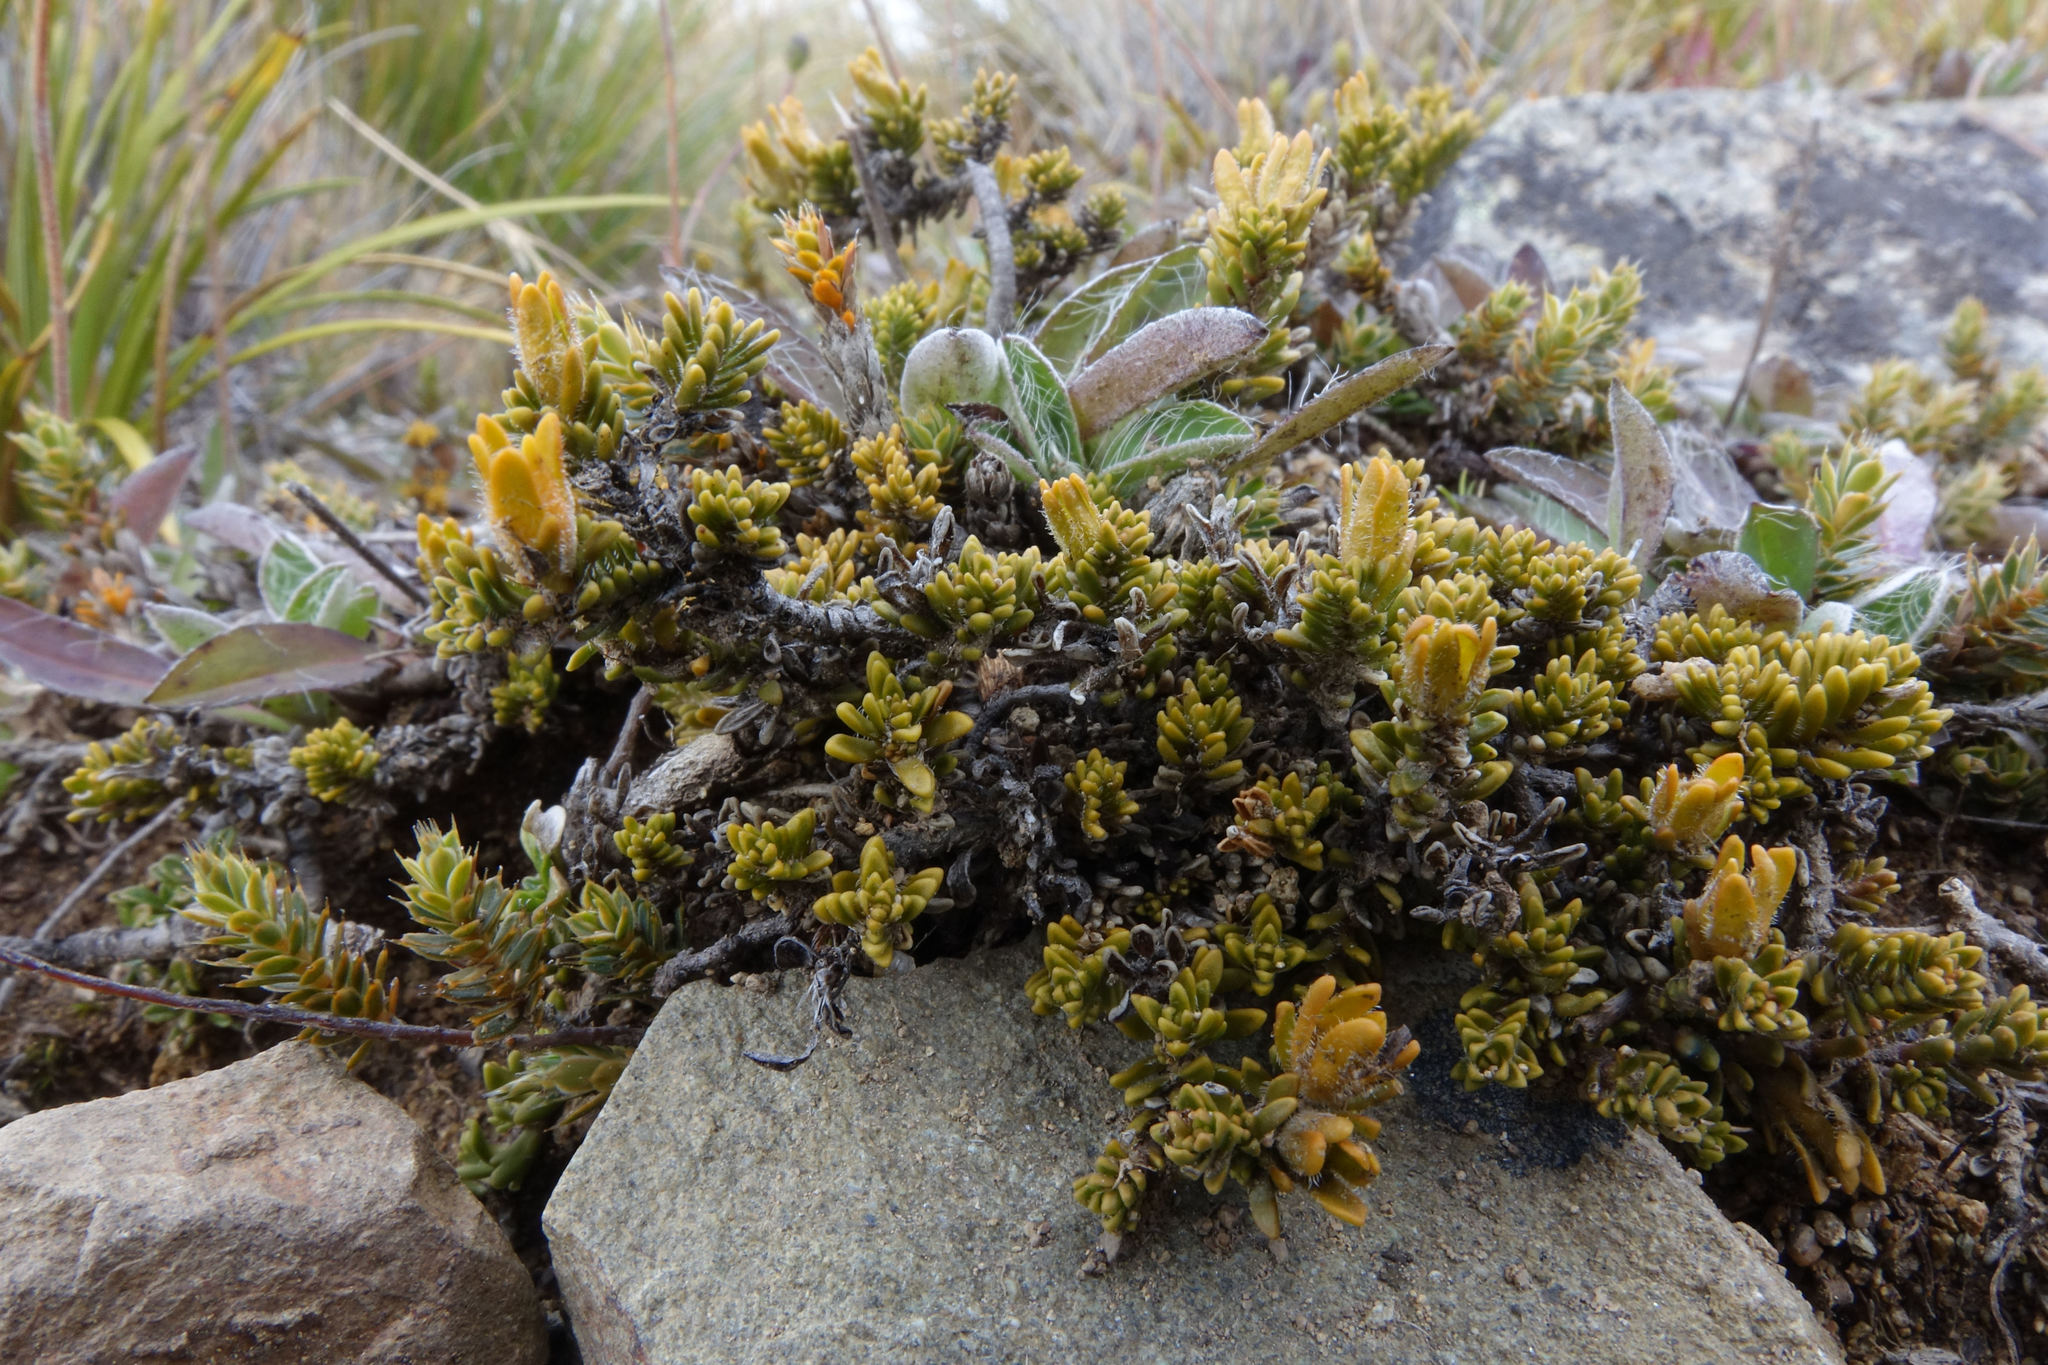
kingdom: Plantae
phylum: Tracheophyta
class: Magnoliopsida
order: Lamiales
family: Plantaginaceae
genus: Veronica
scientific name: Veronica densifolia
